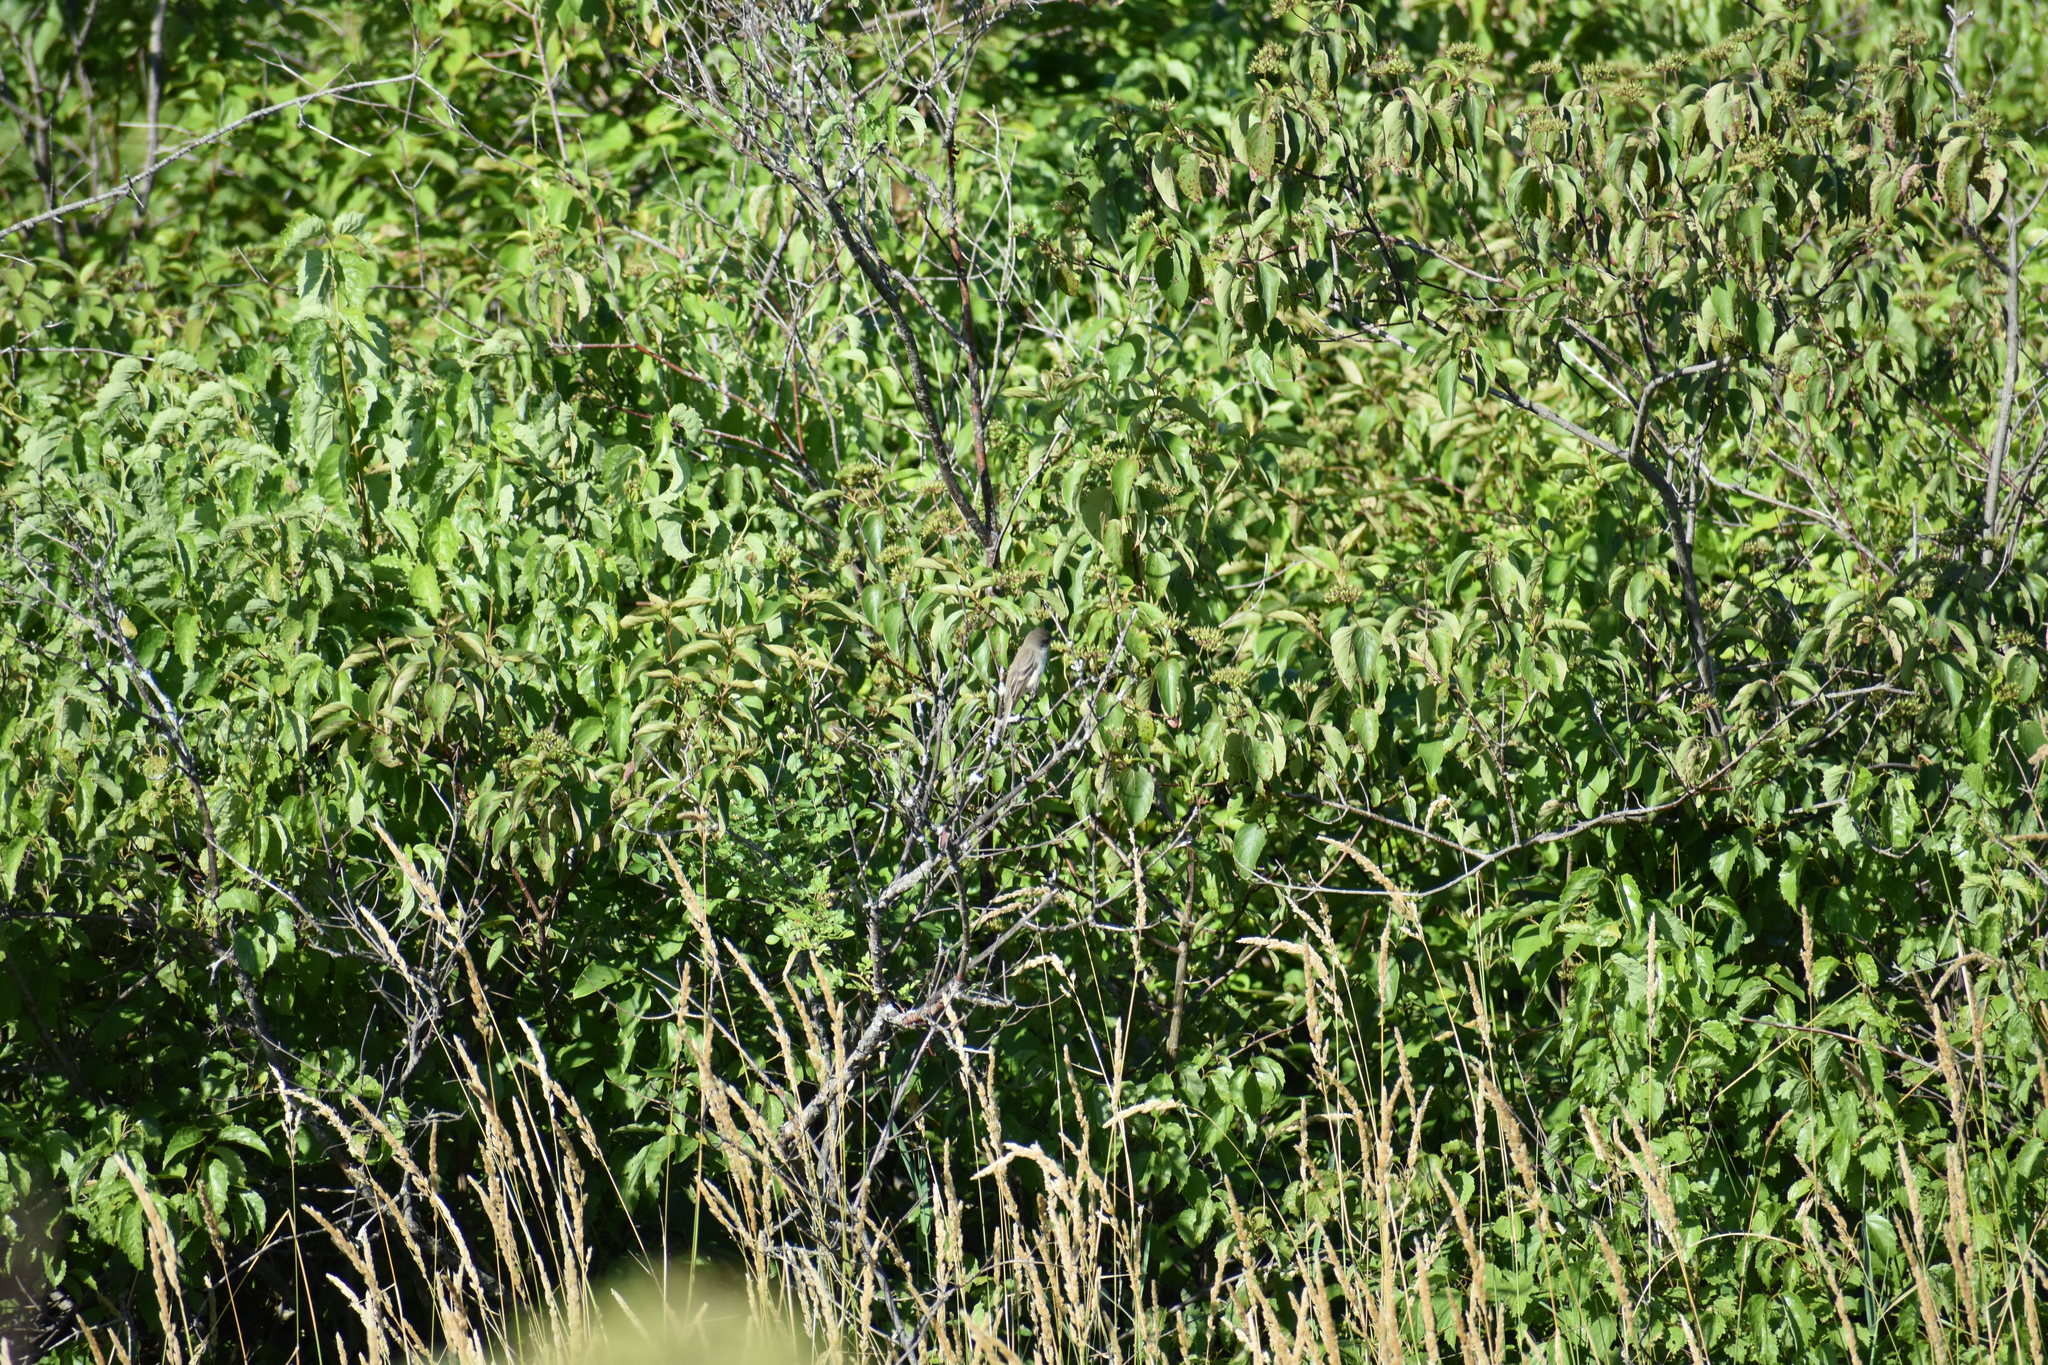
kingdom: Animalia
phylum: Chordata
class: Aves
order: Passeriformes
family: Tyrannidae
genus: Sayornis
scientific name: Sayornis phoebe
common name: Eastern phoebe
